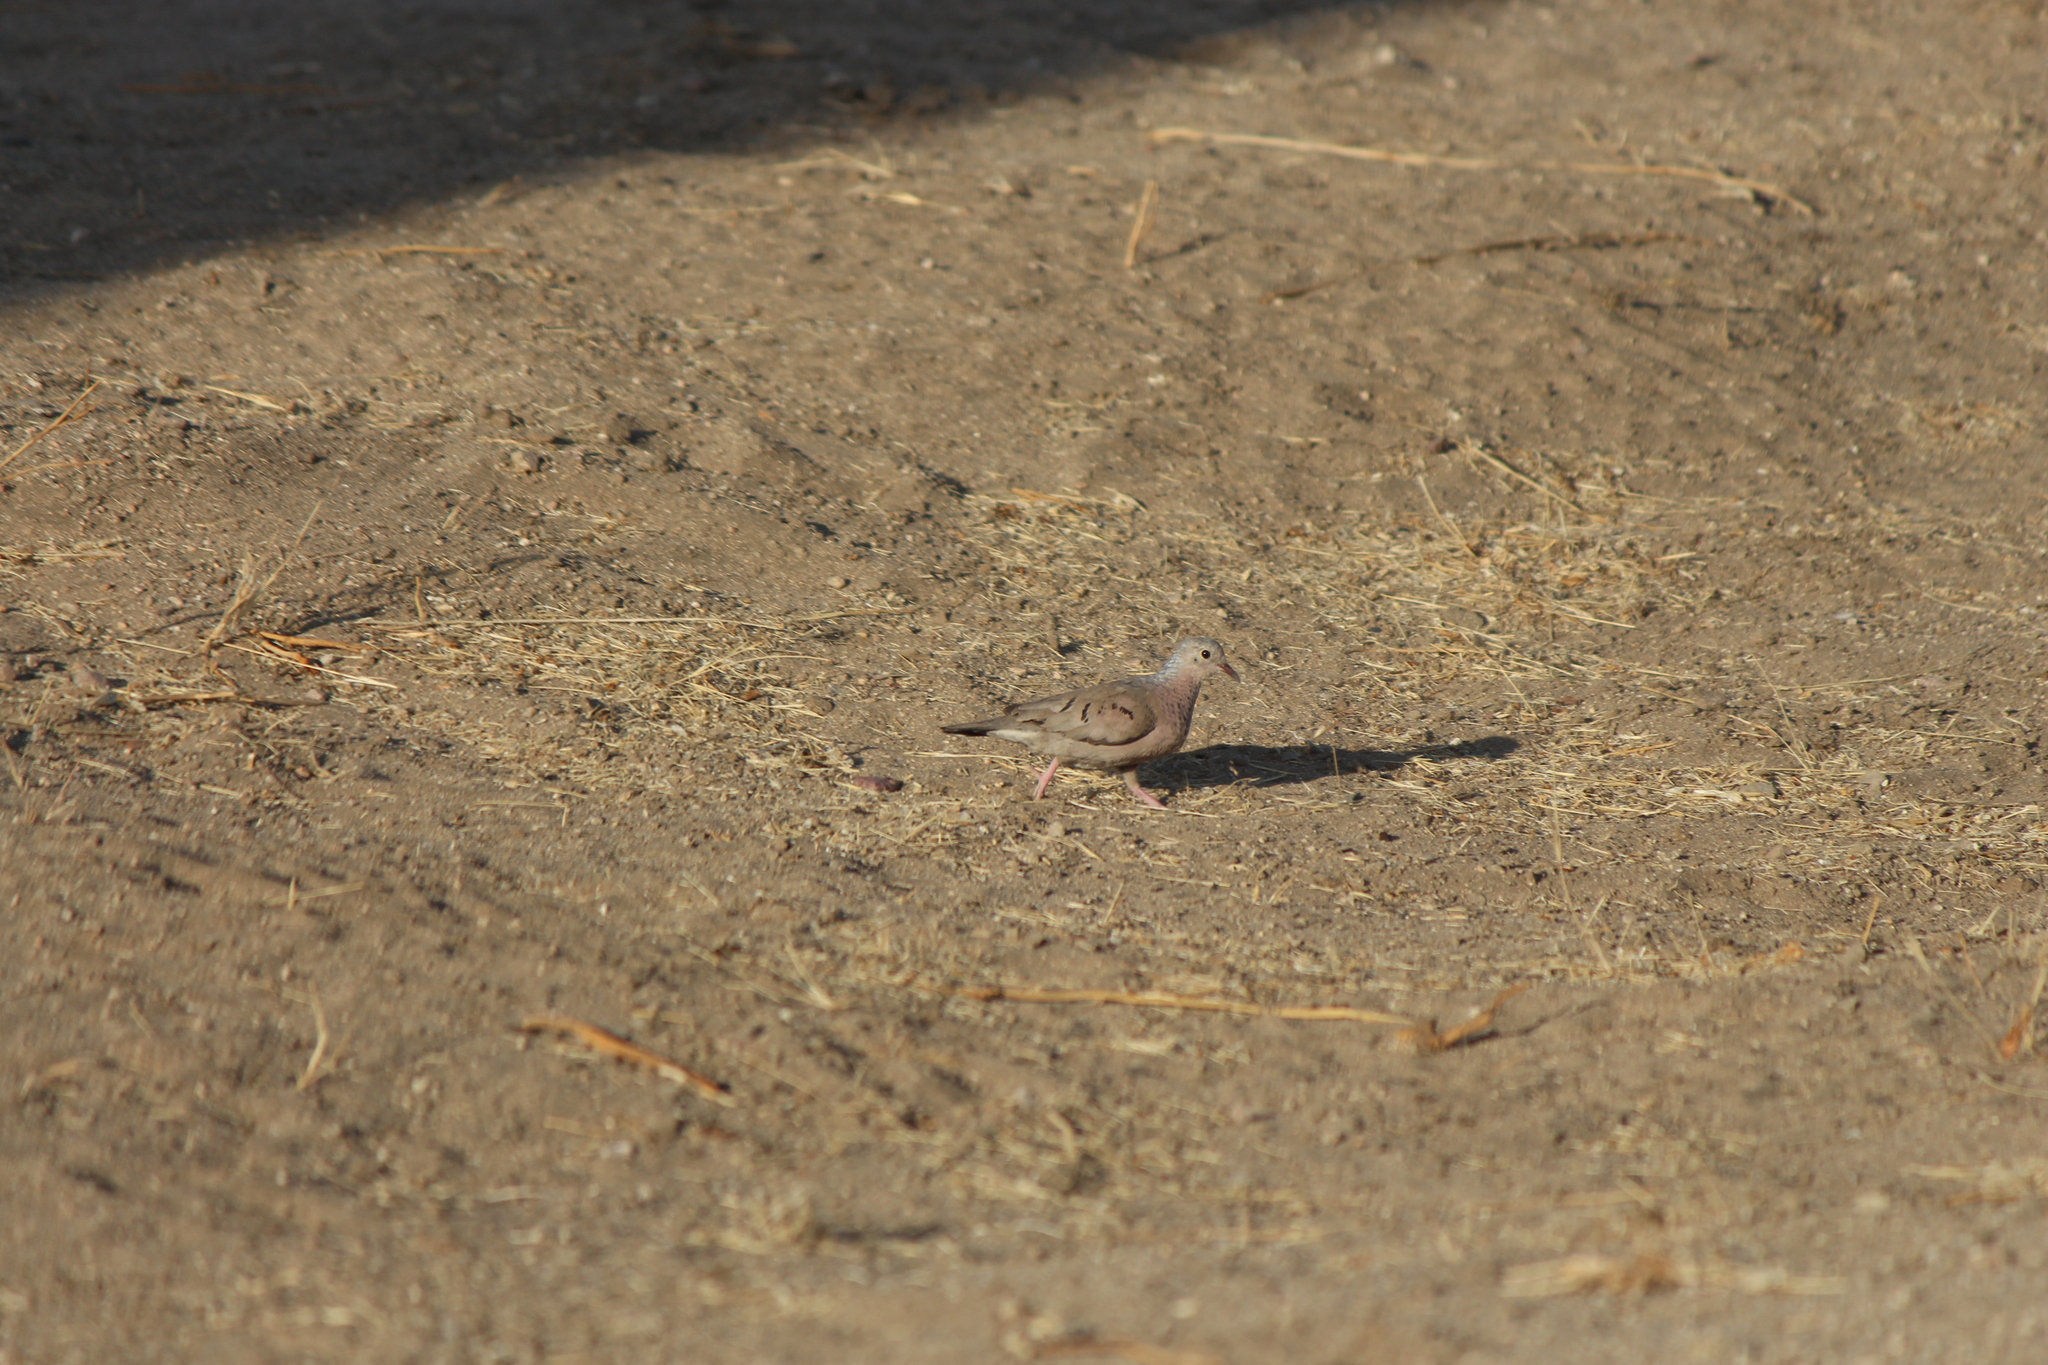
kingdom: Animalia
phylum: Chordata
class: Aves
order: Columbiformes
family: Columbidae
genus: Columbina
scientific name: Columbina passerina
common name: Common ground-dove
